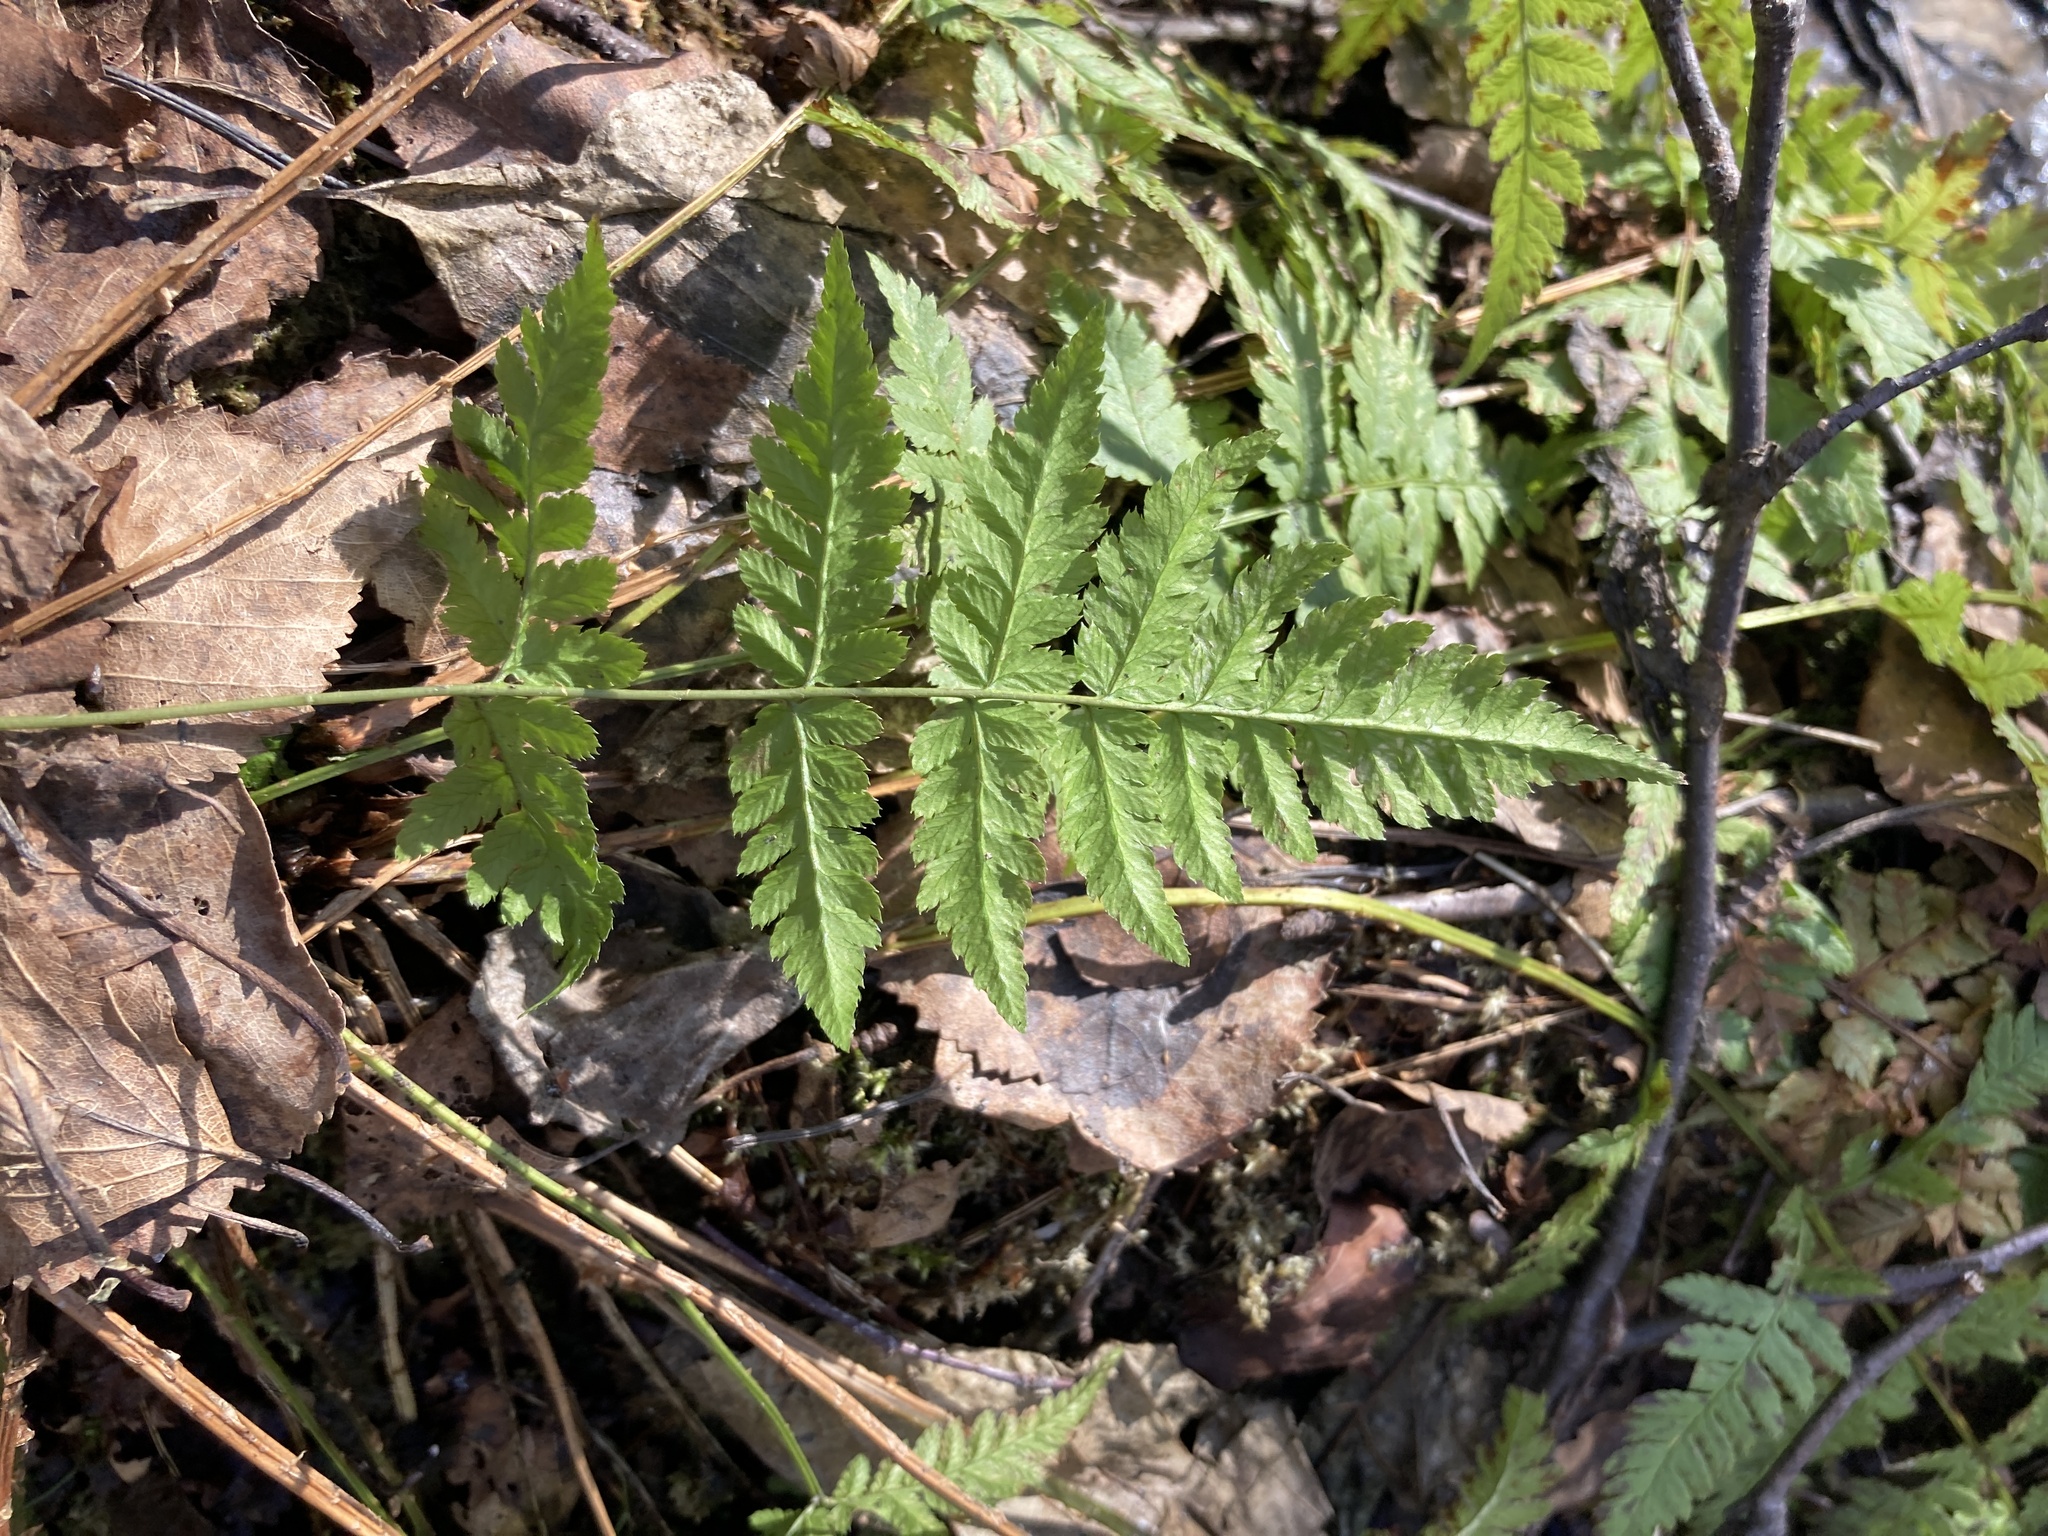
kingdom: Plantae
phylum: Tracheophyta
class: Polypodiopsida
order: Polypodiales
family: Dryopteridaceae
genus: Dryopteris
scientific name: Dryopteris carthusiana
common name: Narrow buckler-fern
